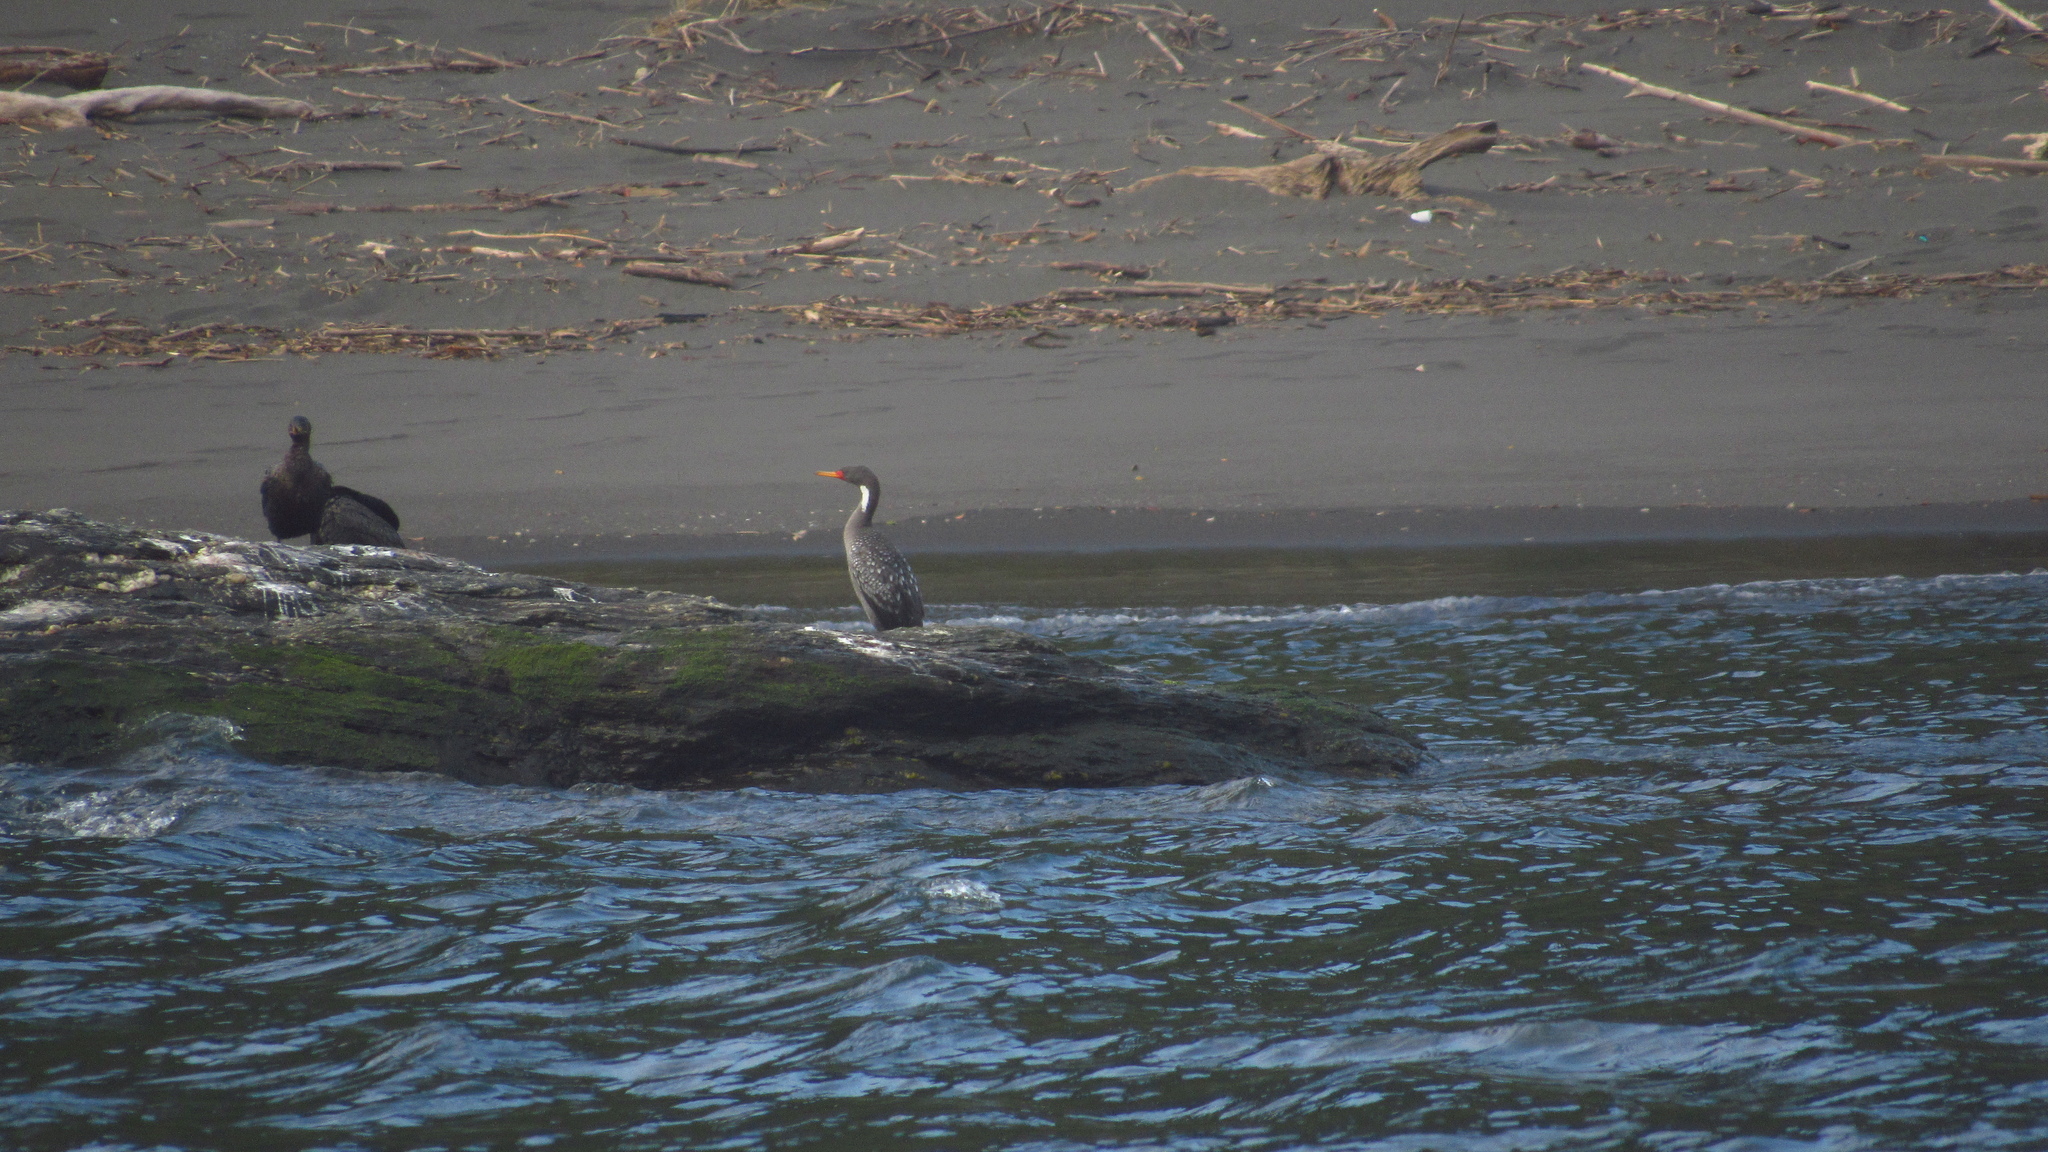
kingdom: Animalia
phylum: Chordata
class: Aves
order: Suliformes
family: Phalacrocoracidae
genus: Phalacrocorax
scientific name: Phalacrocorax gaimardi
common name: Red-legged cormorant
